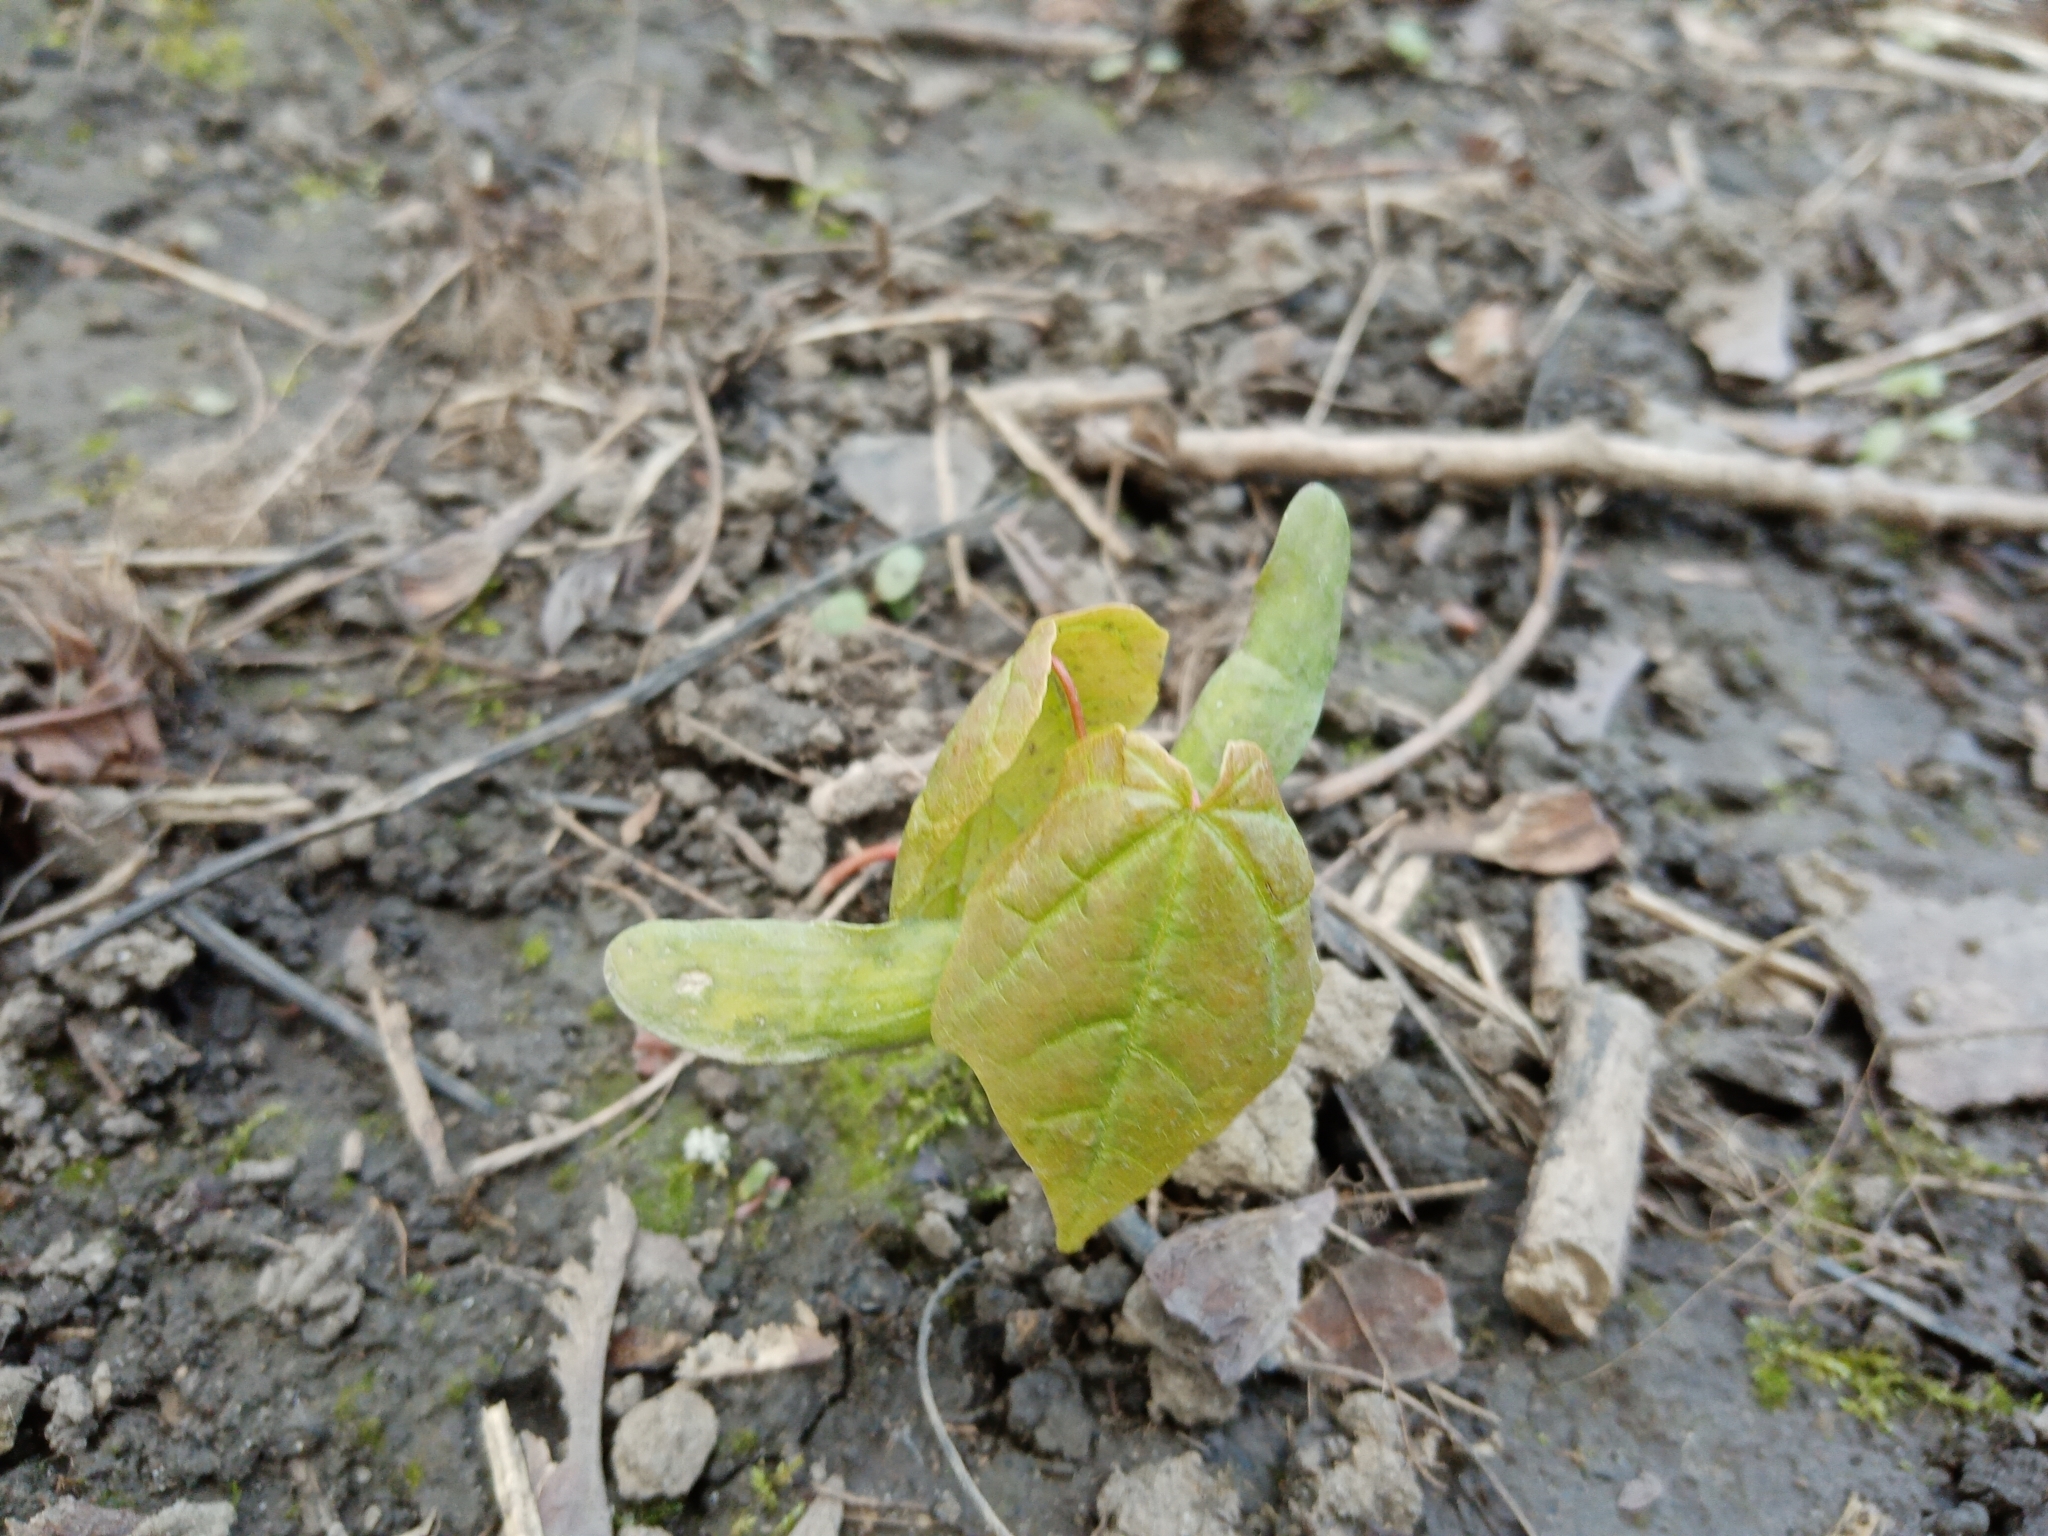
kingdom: Plantae
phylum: Tracheophyta
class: Magnoliopsida
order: Sapindales
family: Sapindaceae
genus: Acer
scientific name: Acer platanoides
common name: Norway maple
